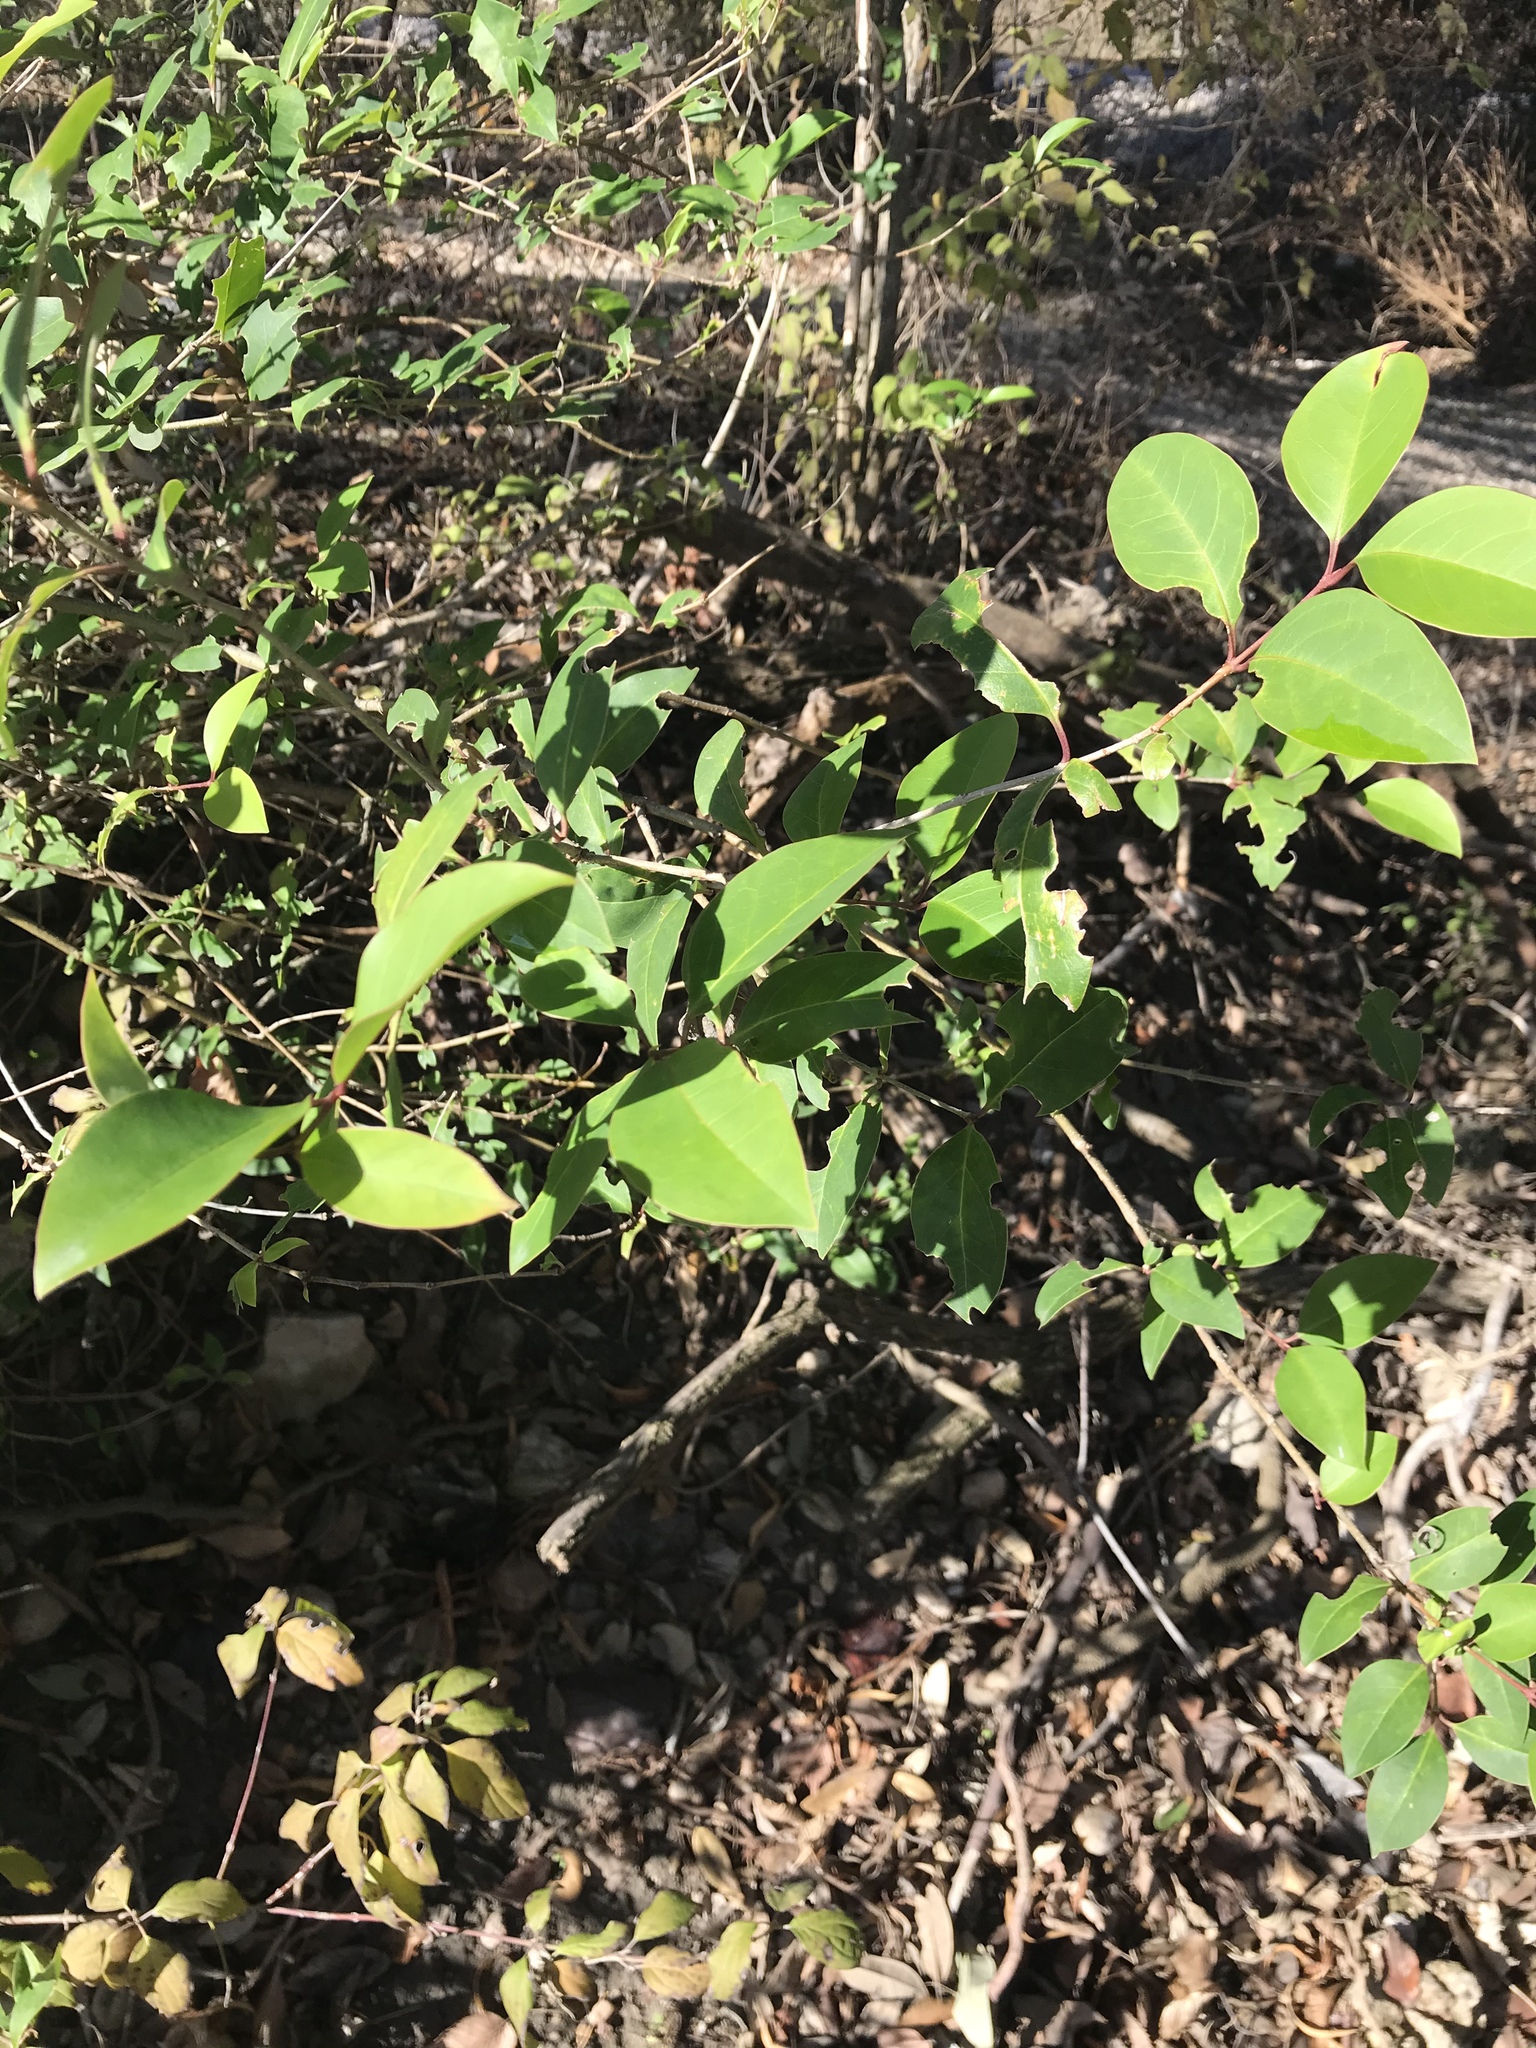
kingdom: Plantae
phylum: Tracheophyta
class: Magnoliopsida
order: Lamiales
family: Oleaceae
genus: Ligustrum
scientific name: Ligustrum lucidum
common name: Glossy privet
